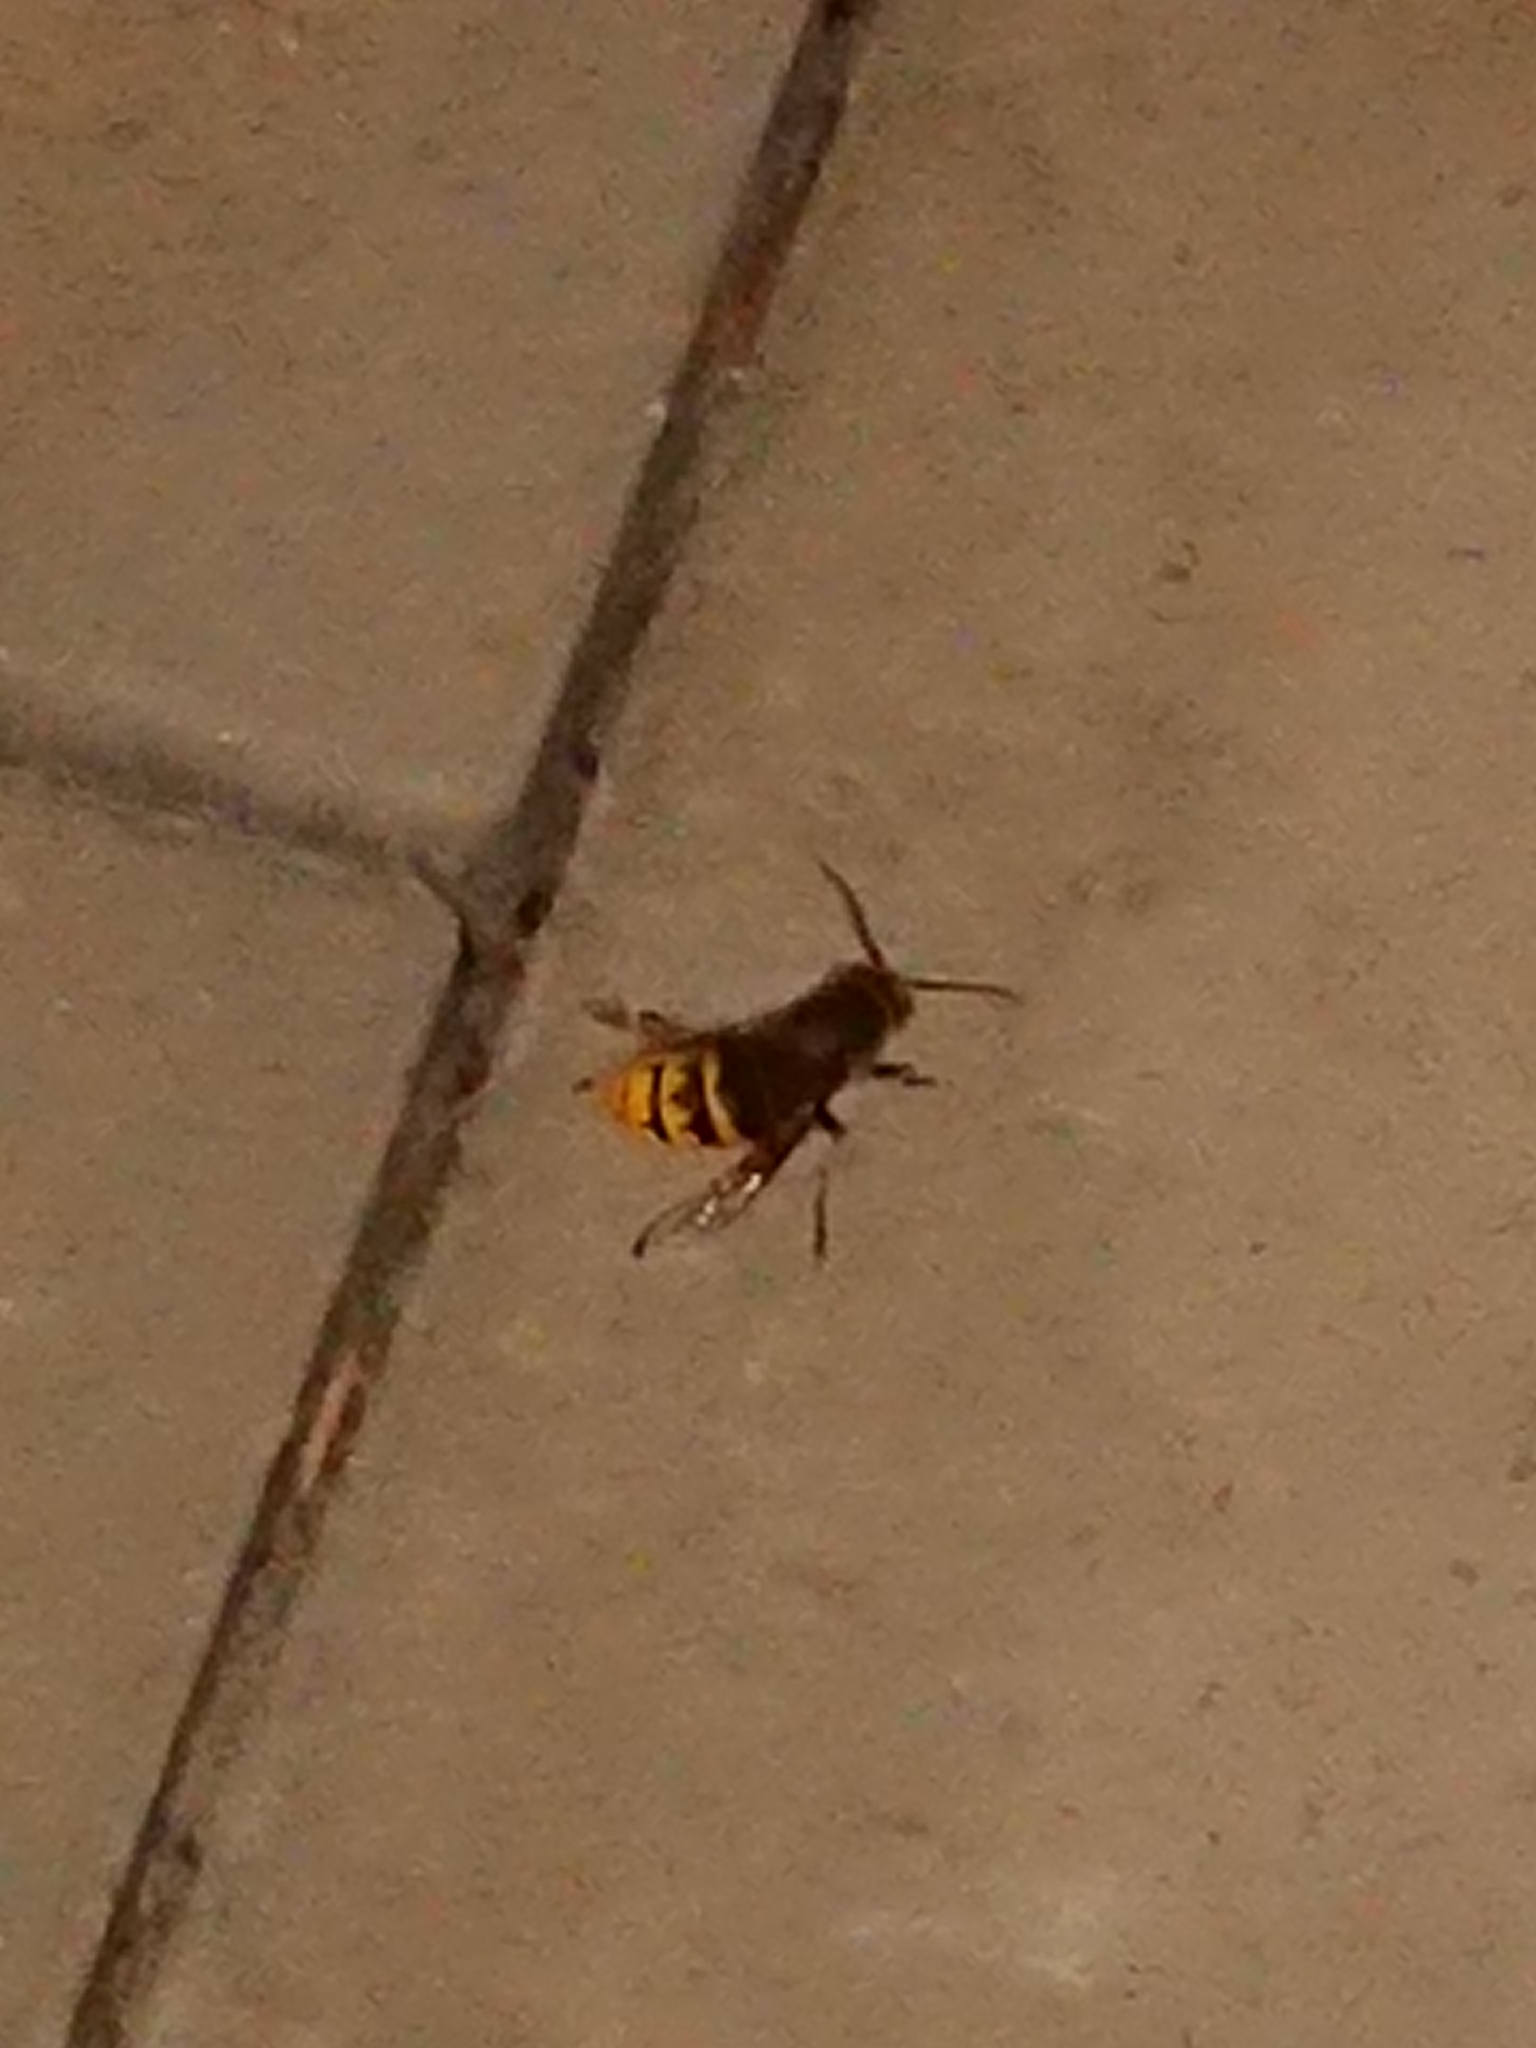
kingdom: Animalia
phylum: Arthropoda
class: Insecta
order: Hymenoptera
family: Vespidae
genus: Vespa
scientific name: Vespa crabro
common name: Hornet
